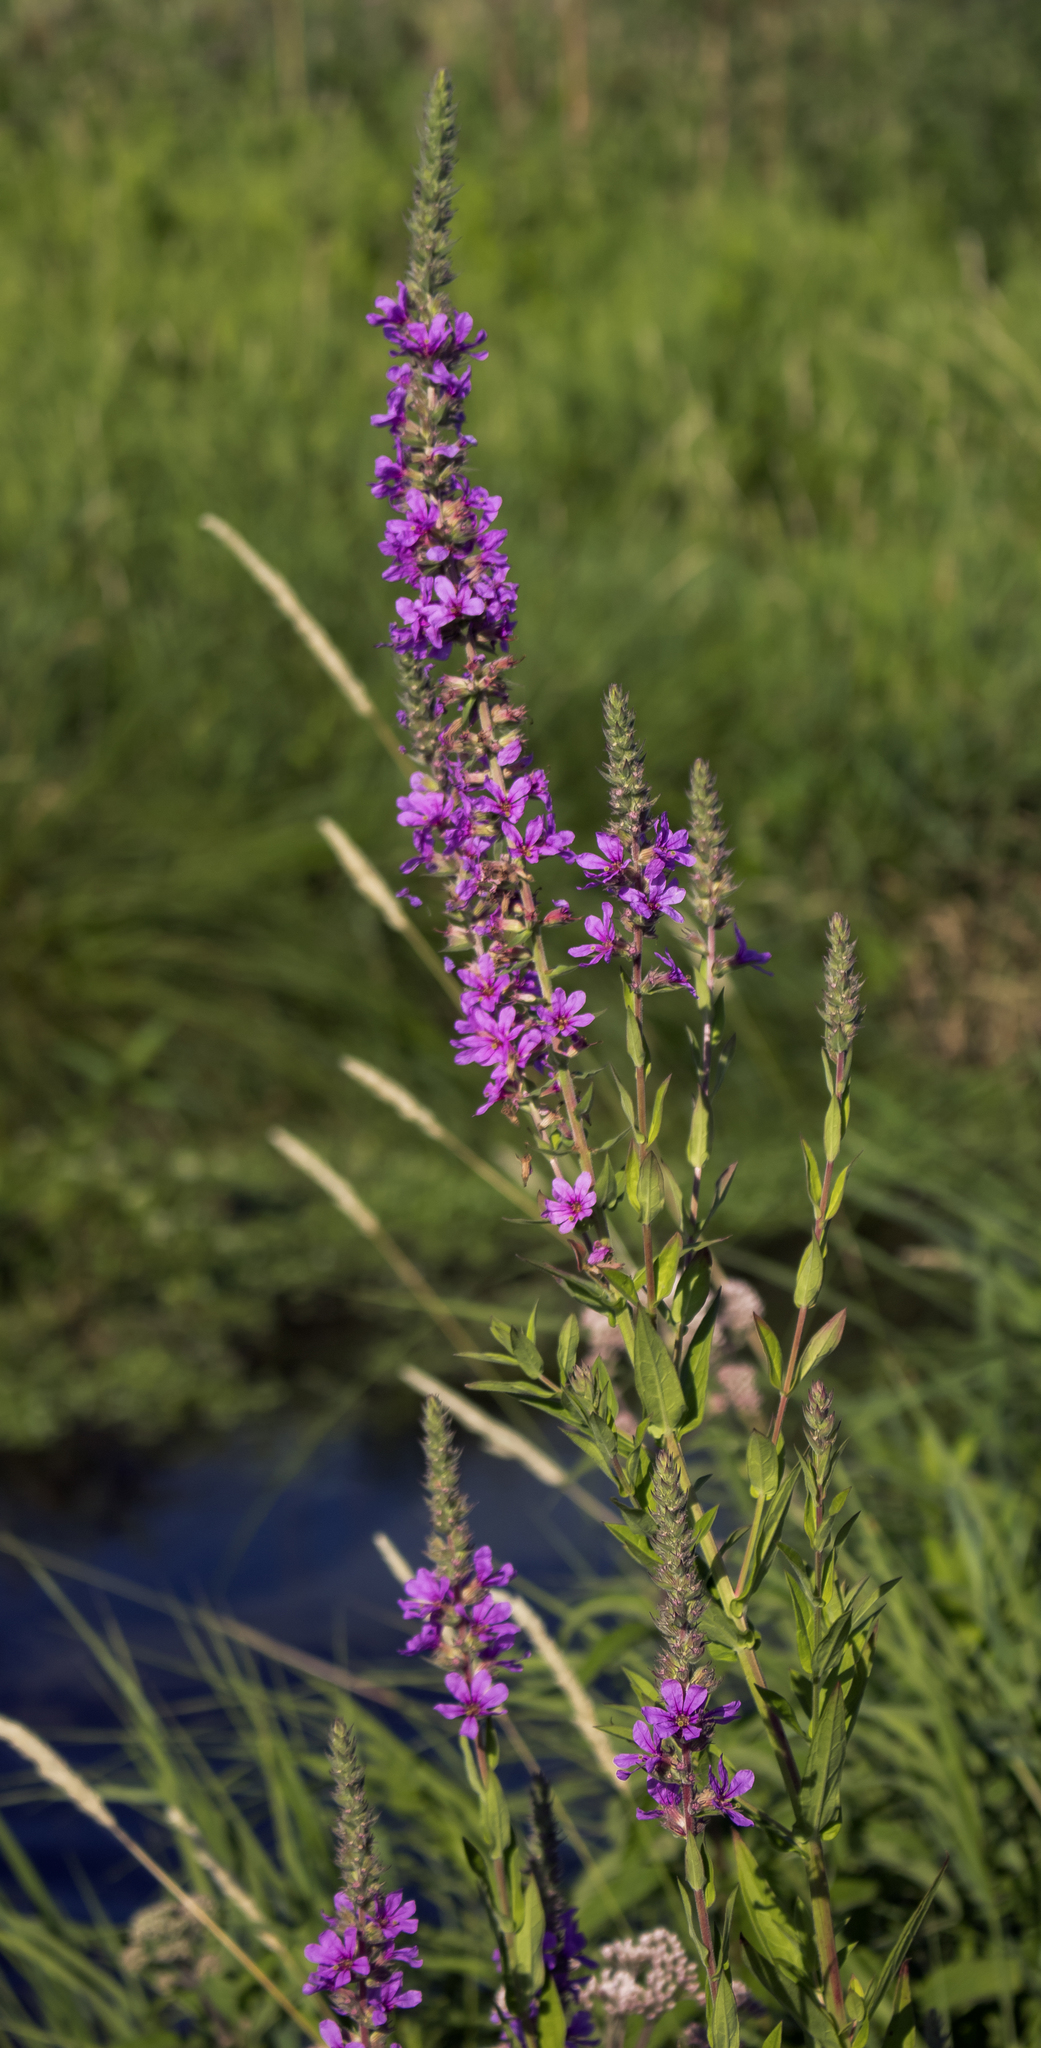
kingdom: Plantae
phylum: Tracheophyta
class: Magnoliopsida
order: Myrtales
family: Lythraceae
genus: Lythrum
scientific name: Lythrum salicaria
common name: Purple loosestrife
